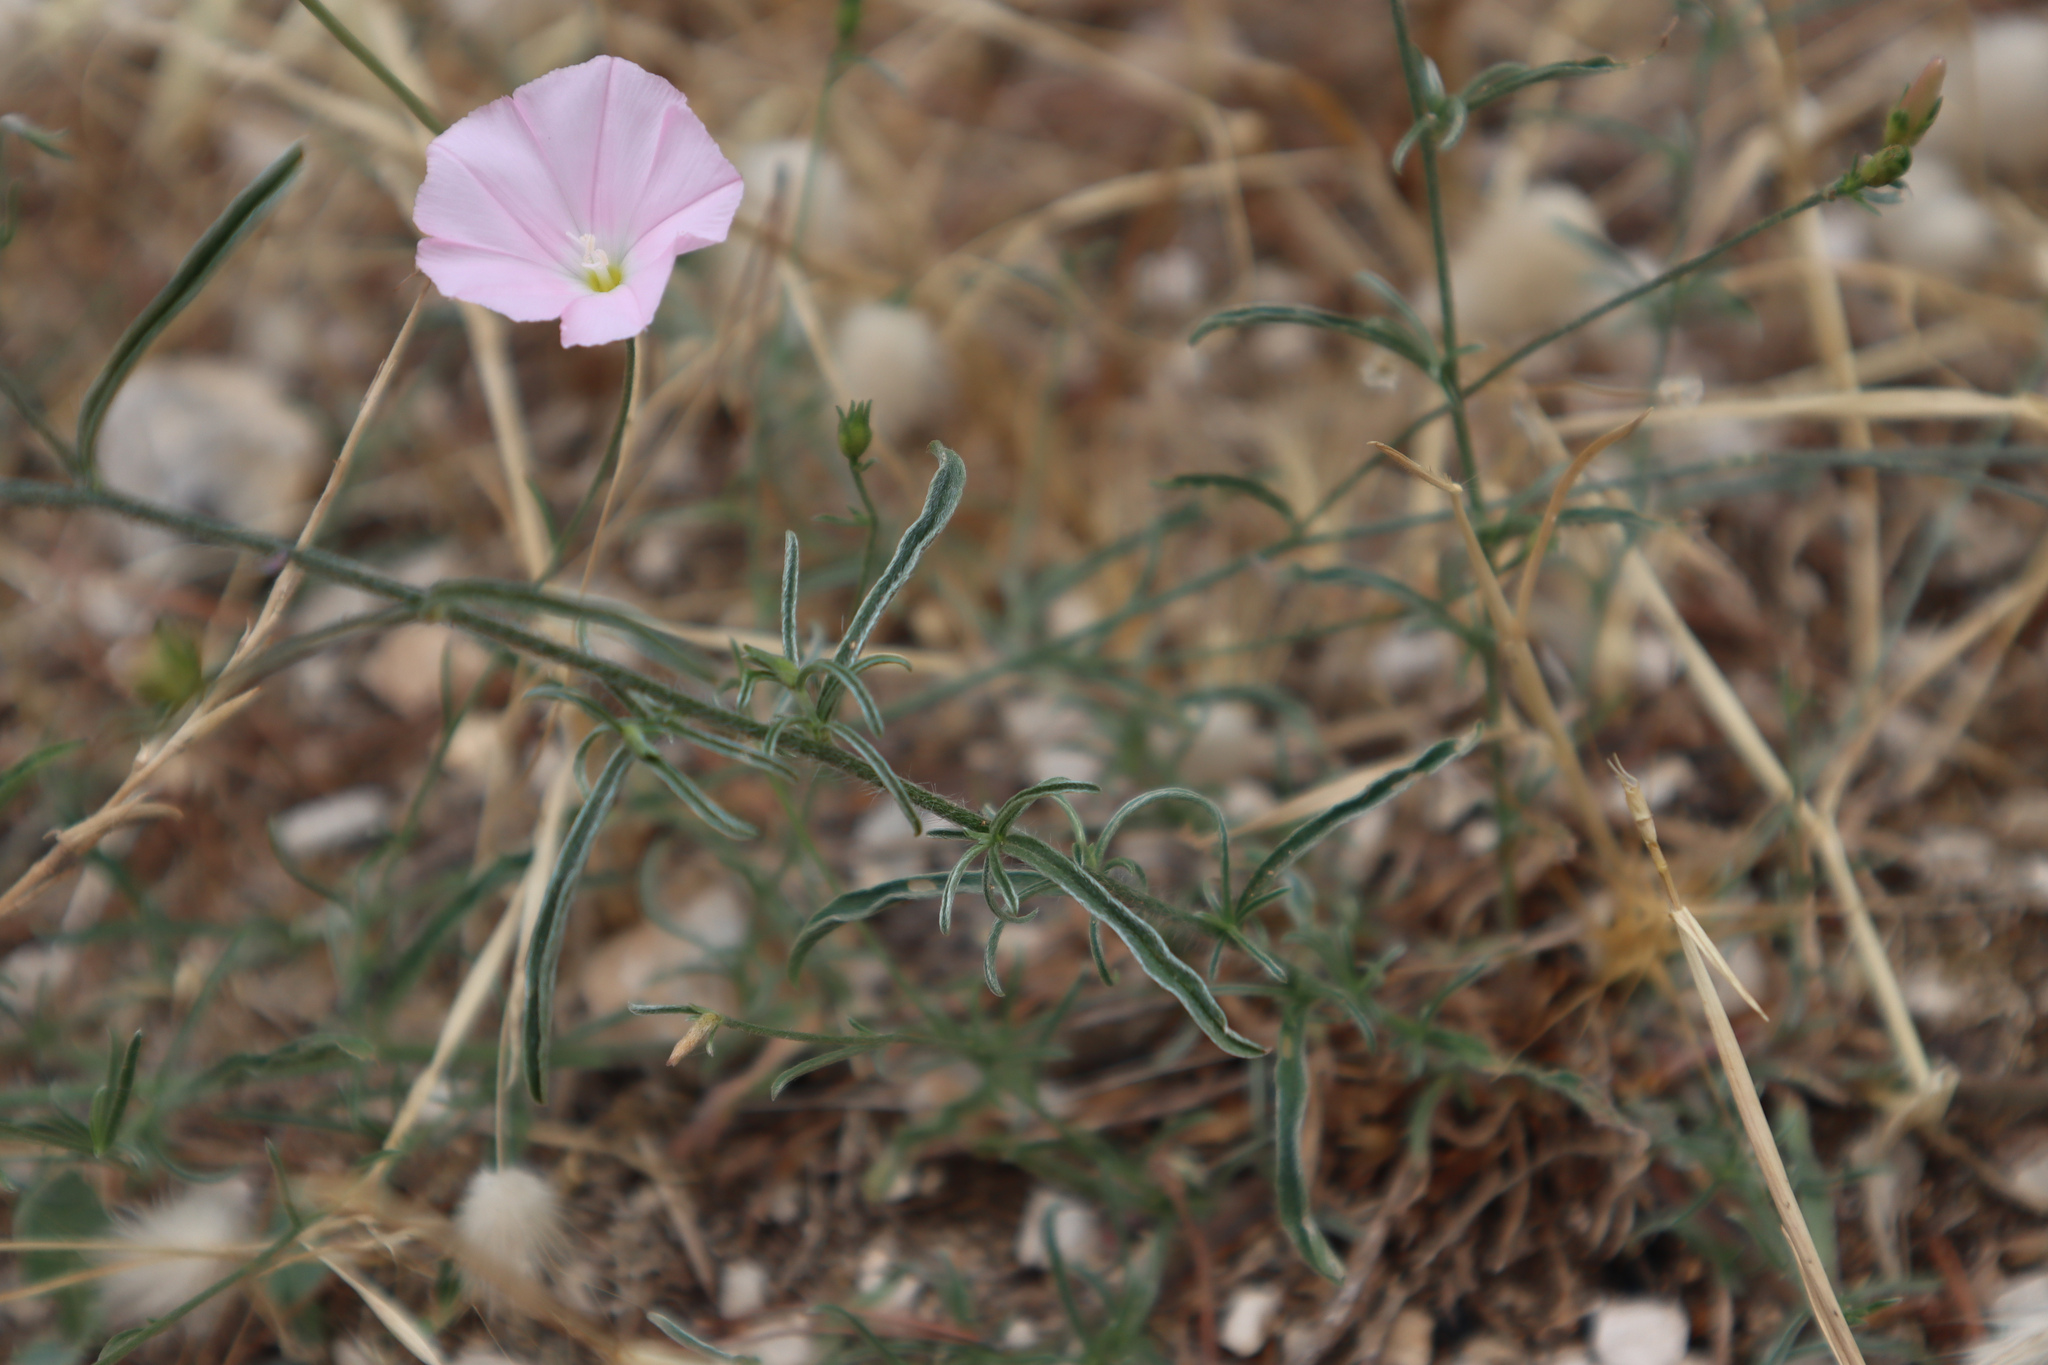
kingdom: Plantae
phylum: Tracheophyta
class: Magnoliopsida
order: Solanales
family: Convolvulaceae
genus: Convolvulus
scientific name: Convolvulus cantabrica
